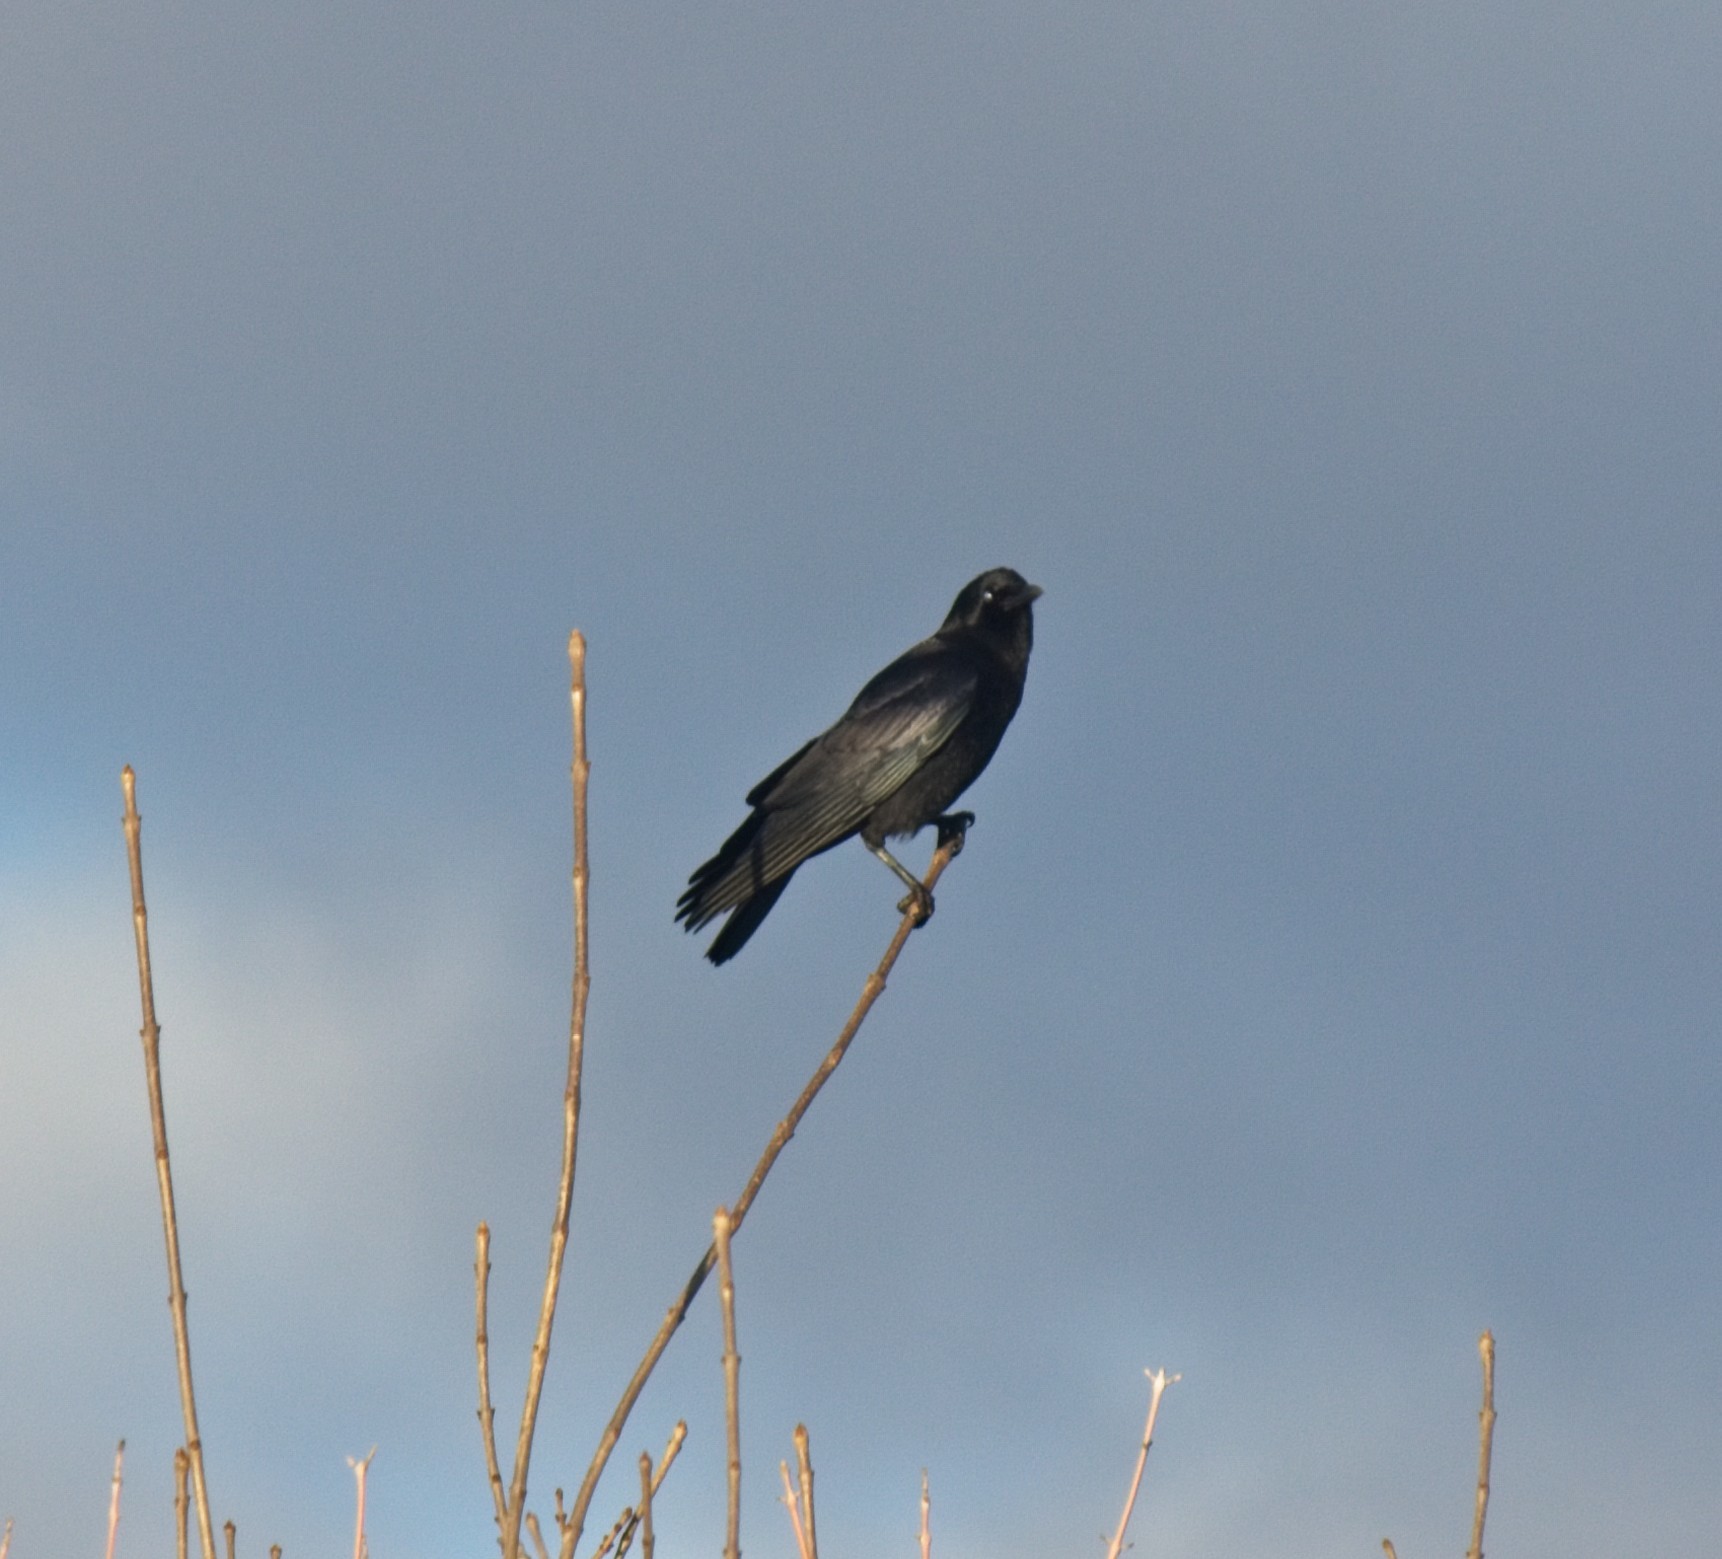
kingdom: Animalia
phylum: Chordata
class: Aves
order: Passeriformes
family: Corvidae
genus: Corvus
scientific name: Corvus brachyrhynchos
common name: American crow
